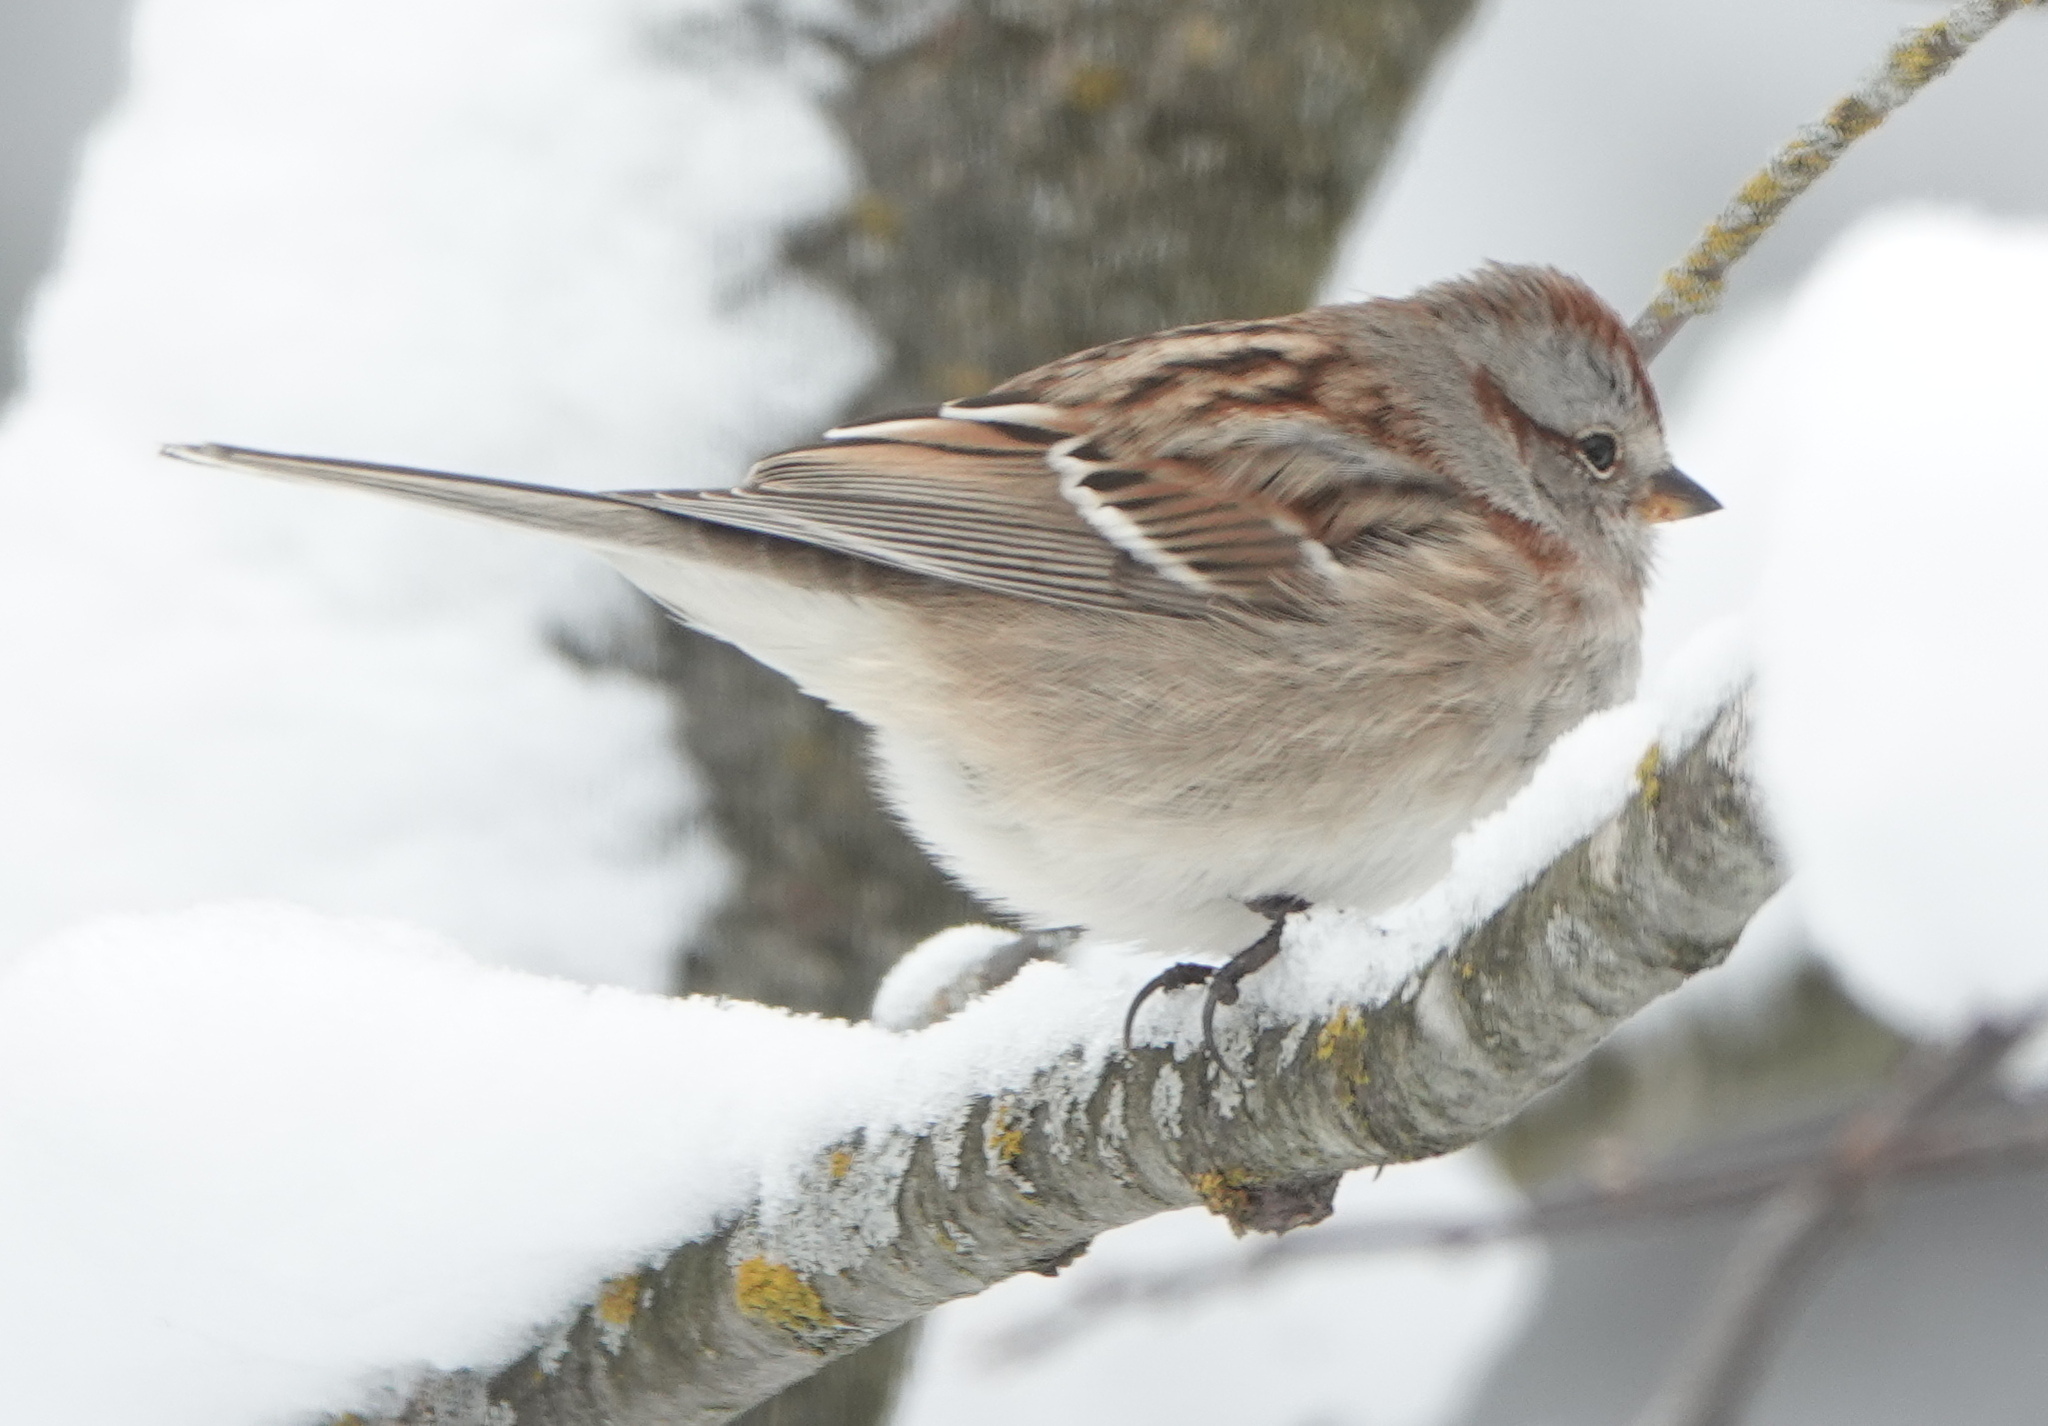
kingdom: Animalia
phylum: Chordata
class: Aves
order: Passeriformes
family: Passerellidae
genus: Spizelloides
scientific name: Spizelloides arborea
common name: American tree sparrow
